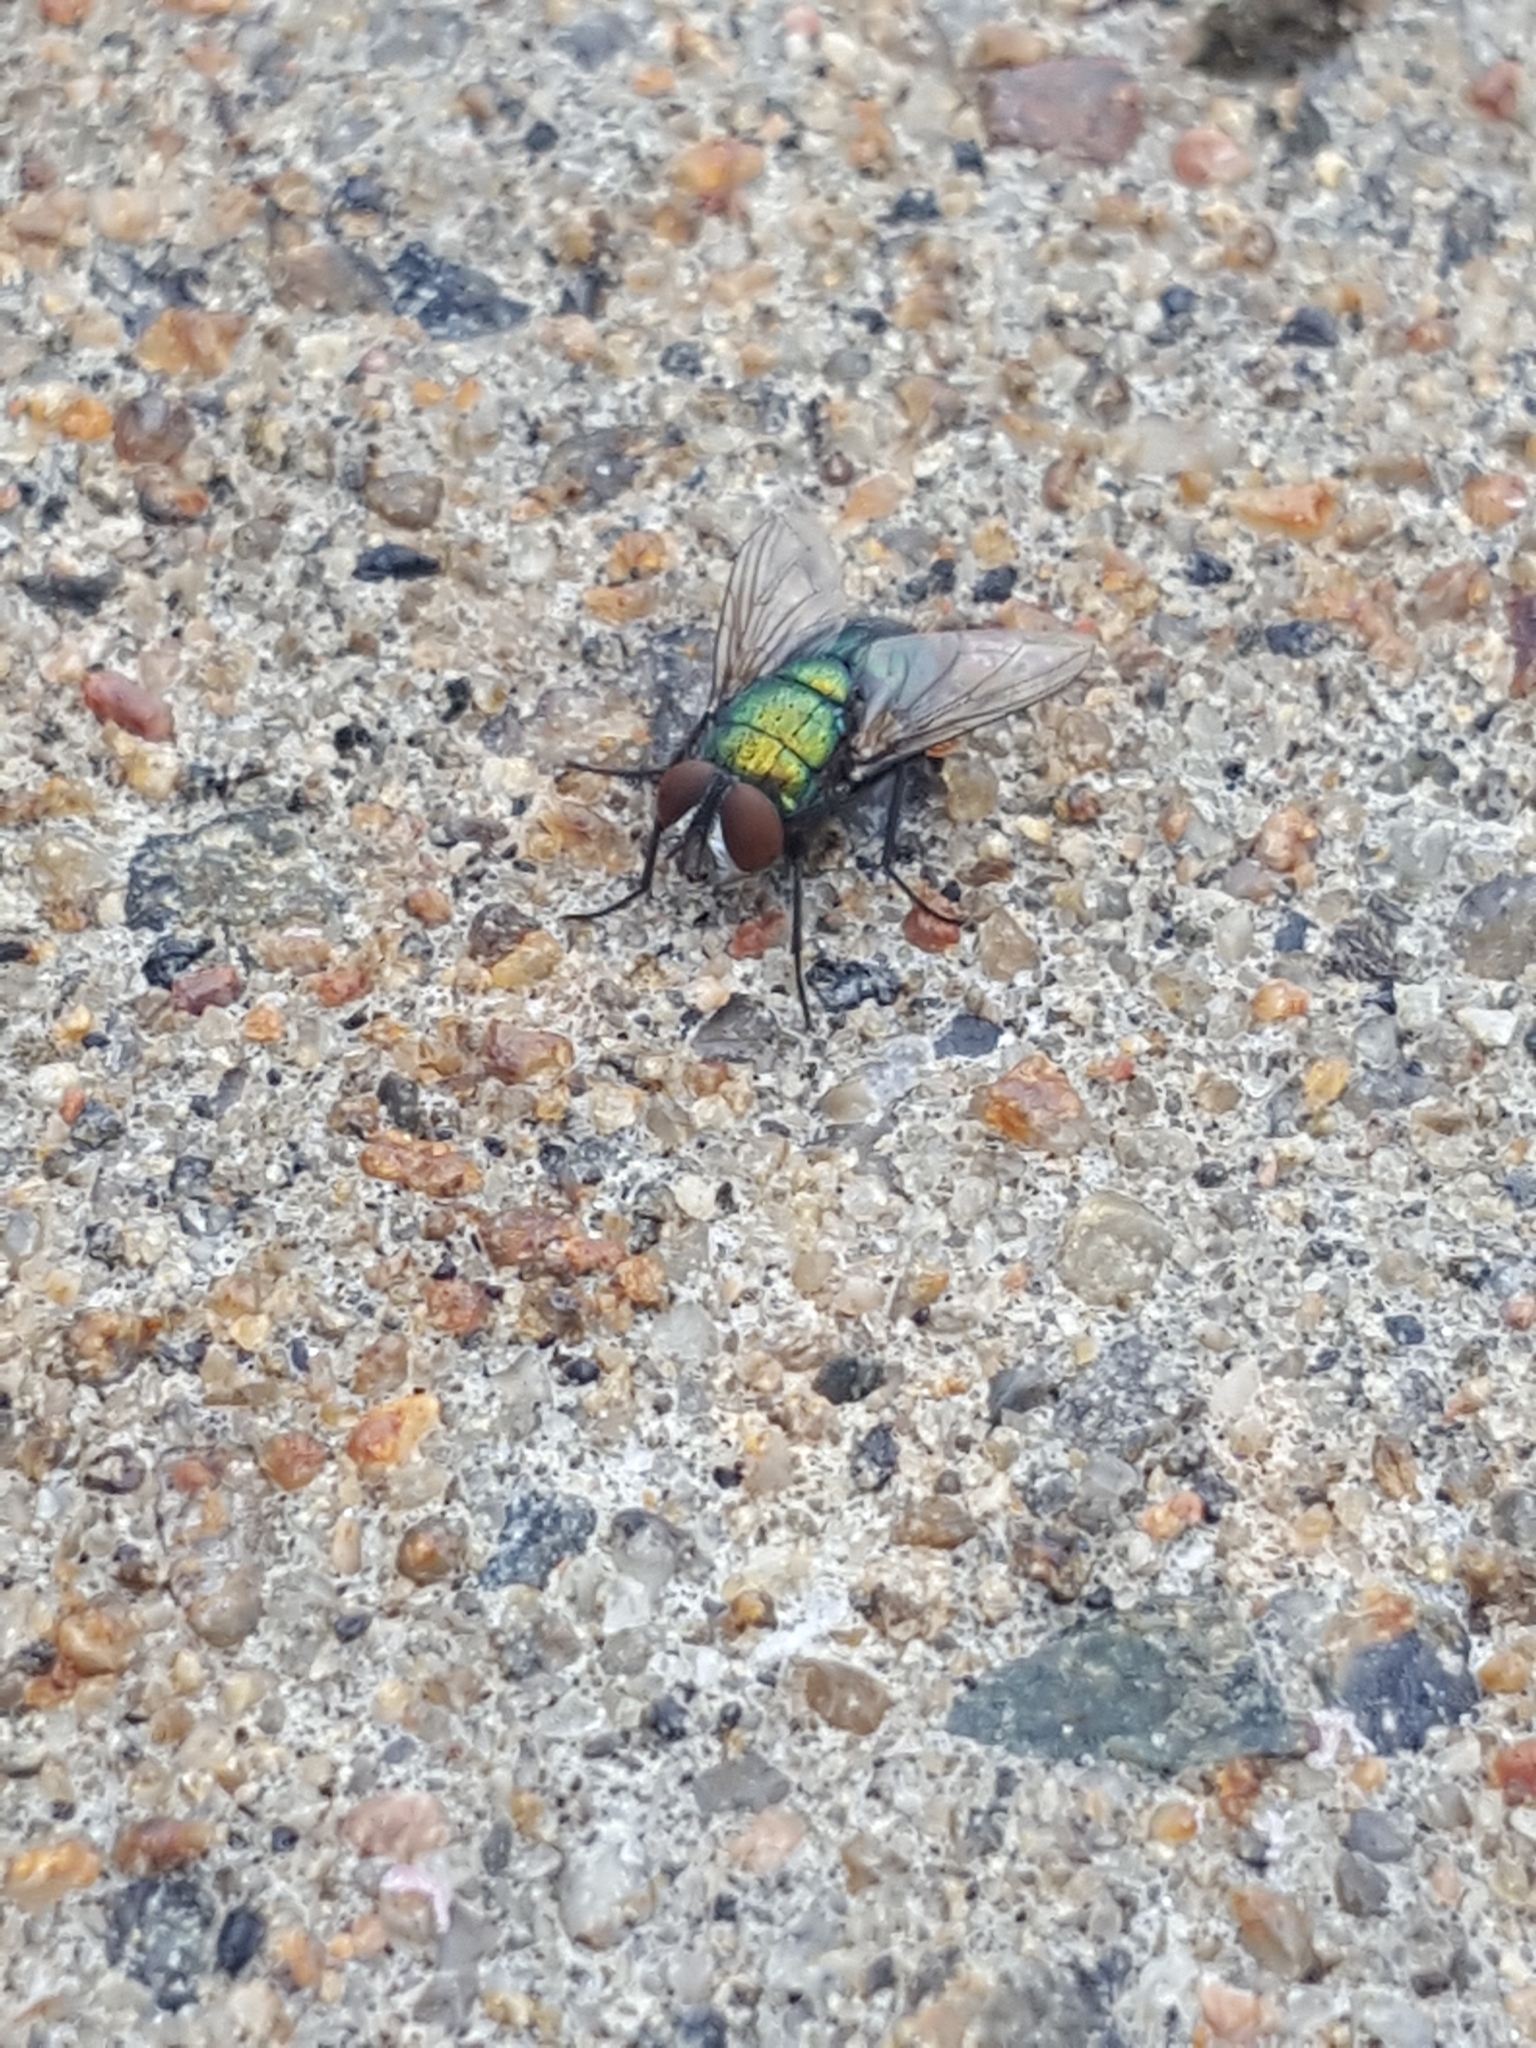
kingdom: Animalia
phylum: Arthropoda
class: Insecta
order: Diptera
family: Calliphoridae
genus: Lucilia
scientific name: Lucilia sericata
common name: Blow fly
